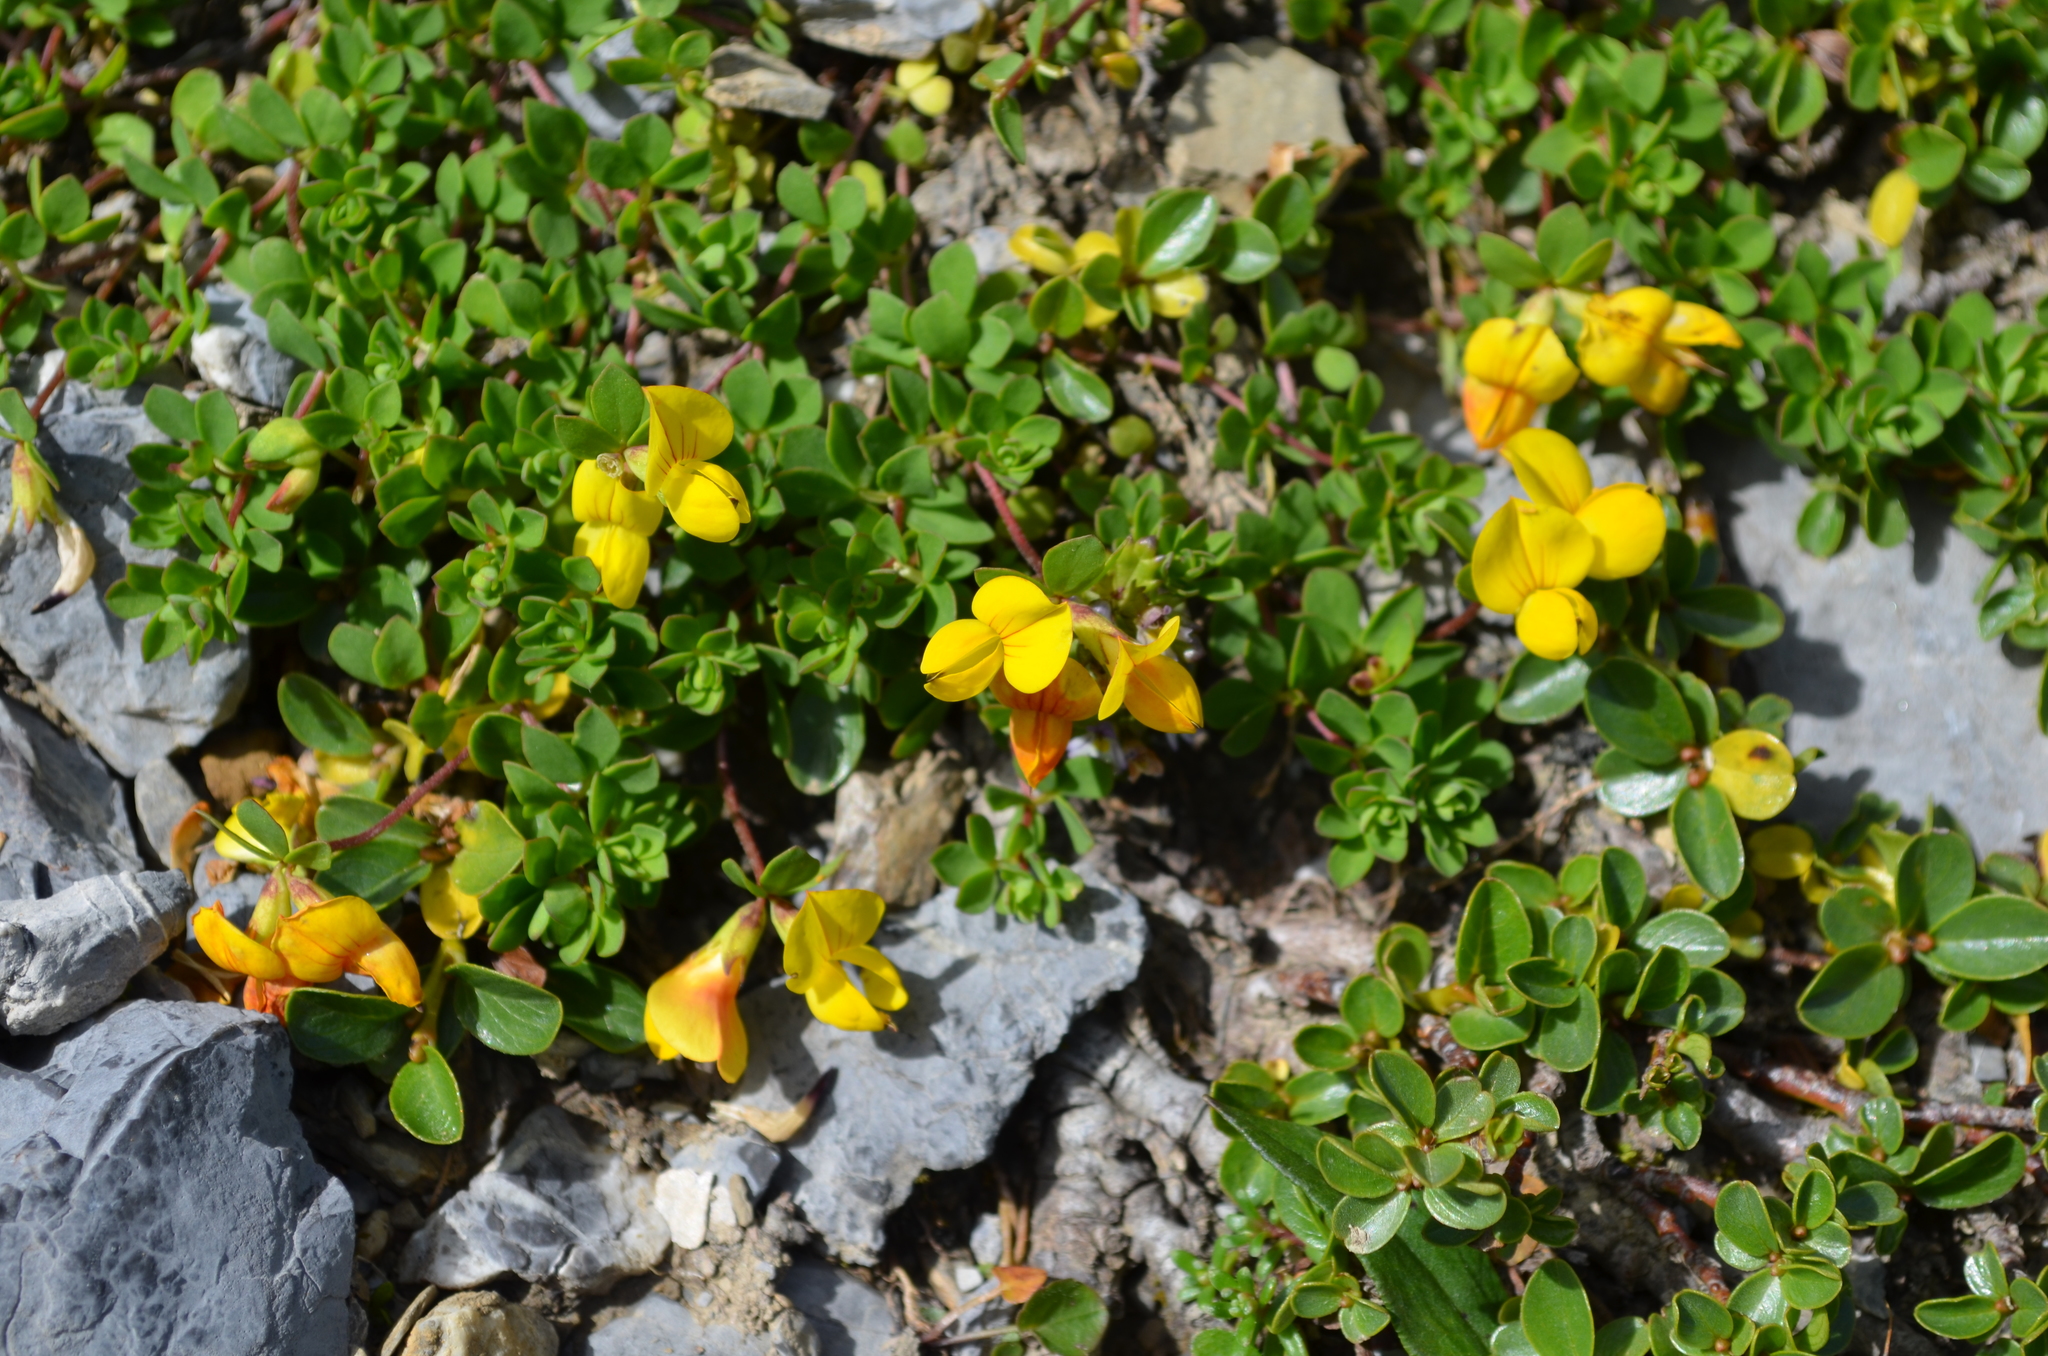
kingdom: Plantae
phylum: Tracheophyta
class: Magnoliopsida
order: Fabales
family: Fabaceae
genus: Lotus
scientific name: Lotus alpinus
